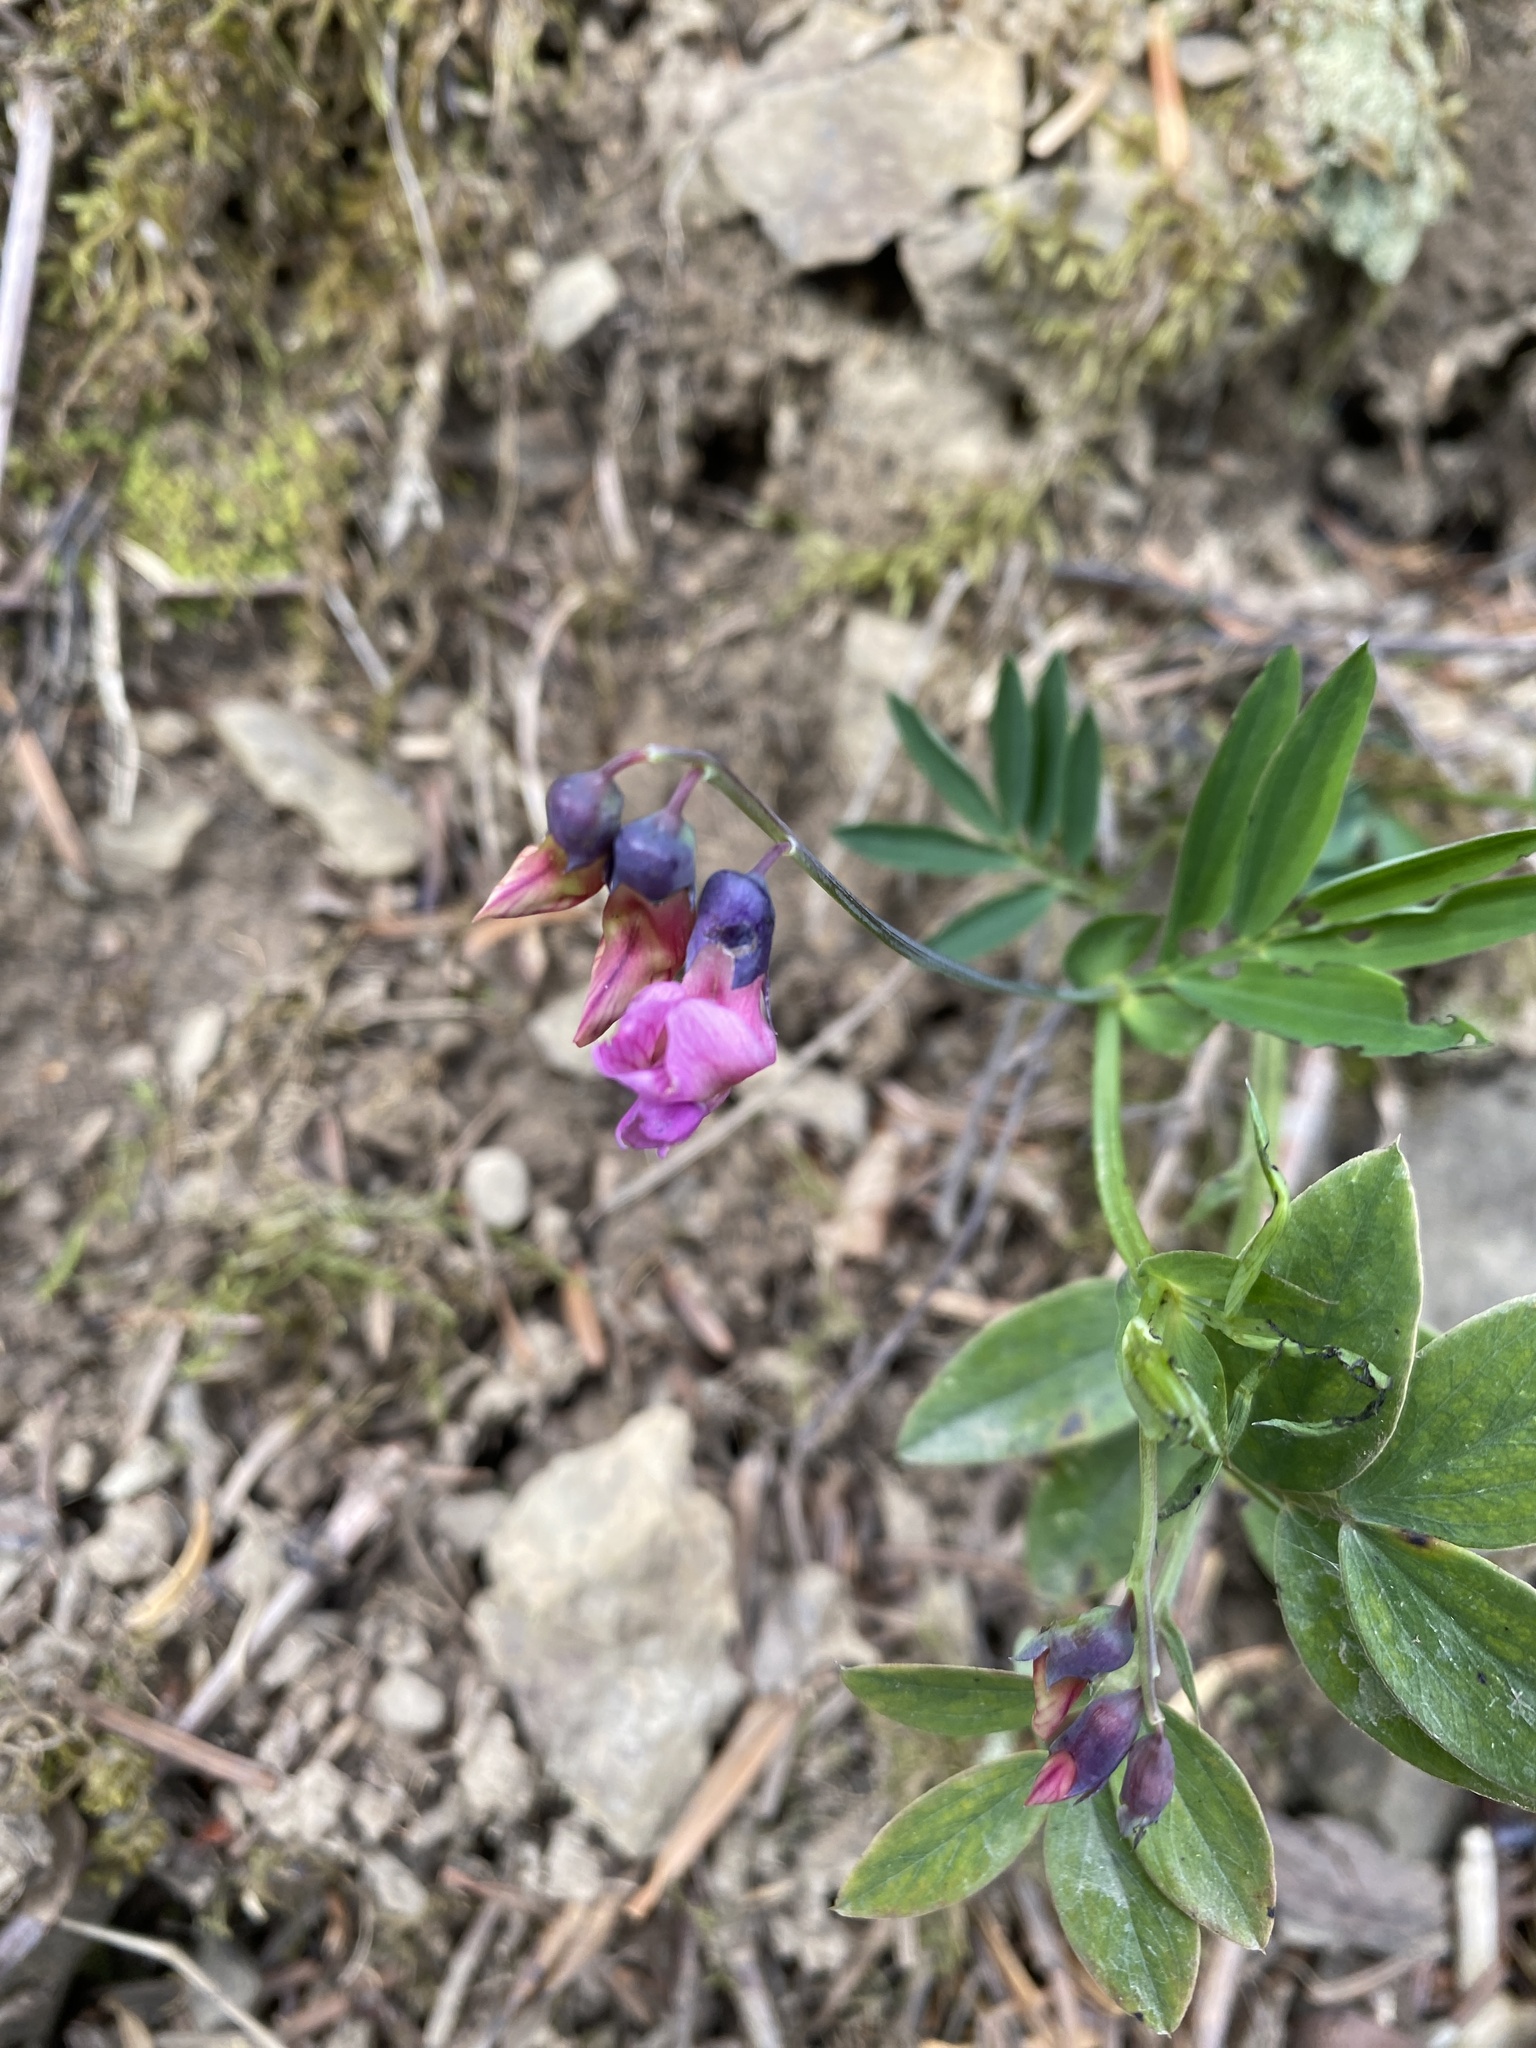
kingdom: Plantae
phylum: Tracheophyta
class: Magnoliopsida
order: Fabales
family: Fabaceae
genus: Lathyrus
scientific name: Lathyrus linifolius
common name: Bitter-vetch
